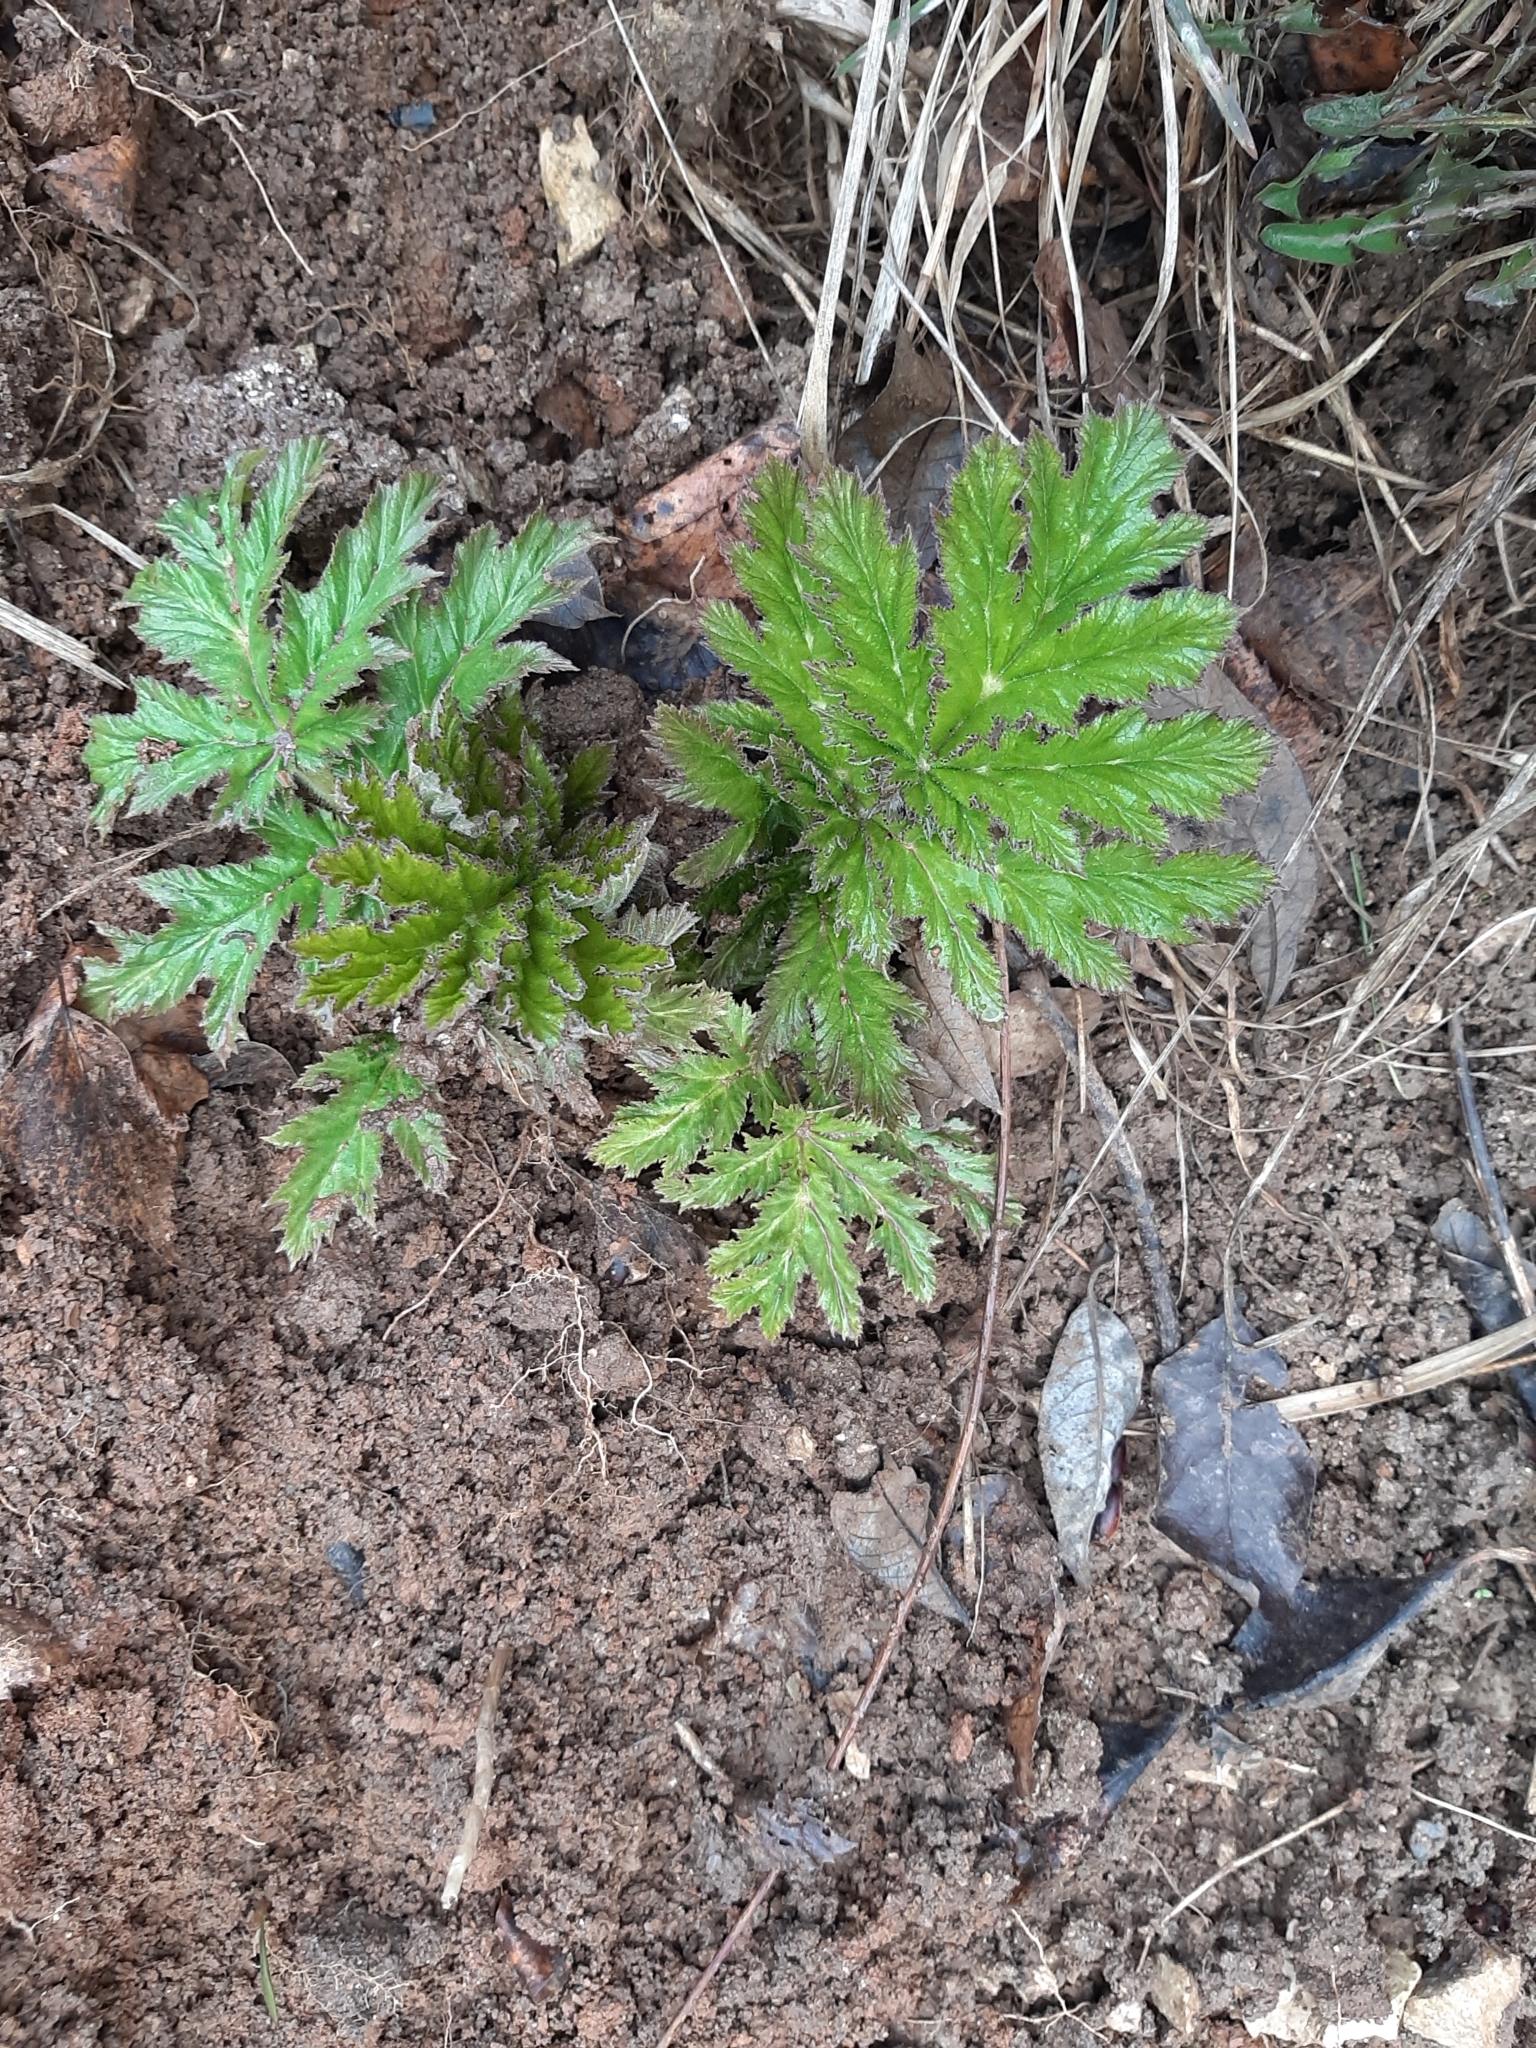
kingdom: Plantae
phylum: Tracheophyta
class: Magnoliopsida
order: Apiales
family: Apiaceae
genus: Heracleum
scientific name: Heracleum sosnowskyi
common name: Sosnowsky's hogweed
